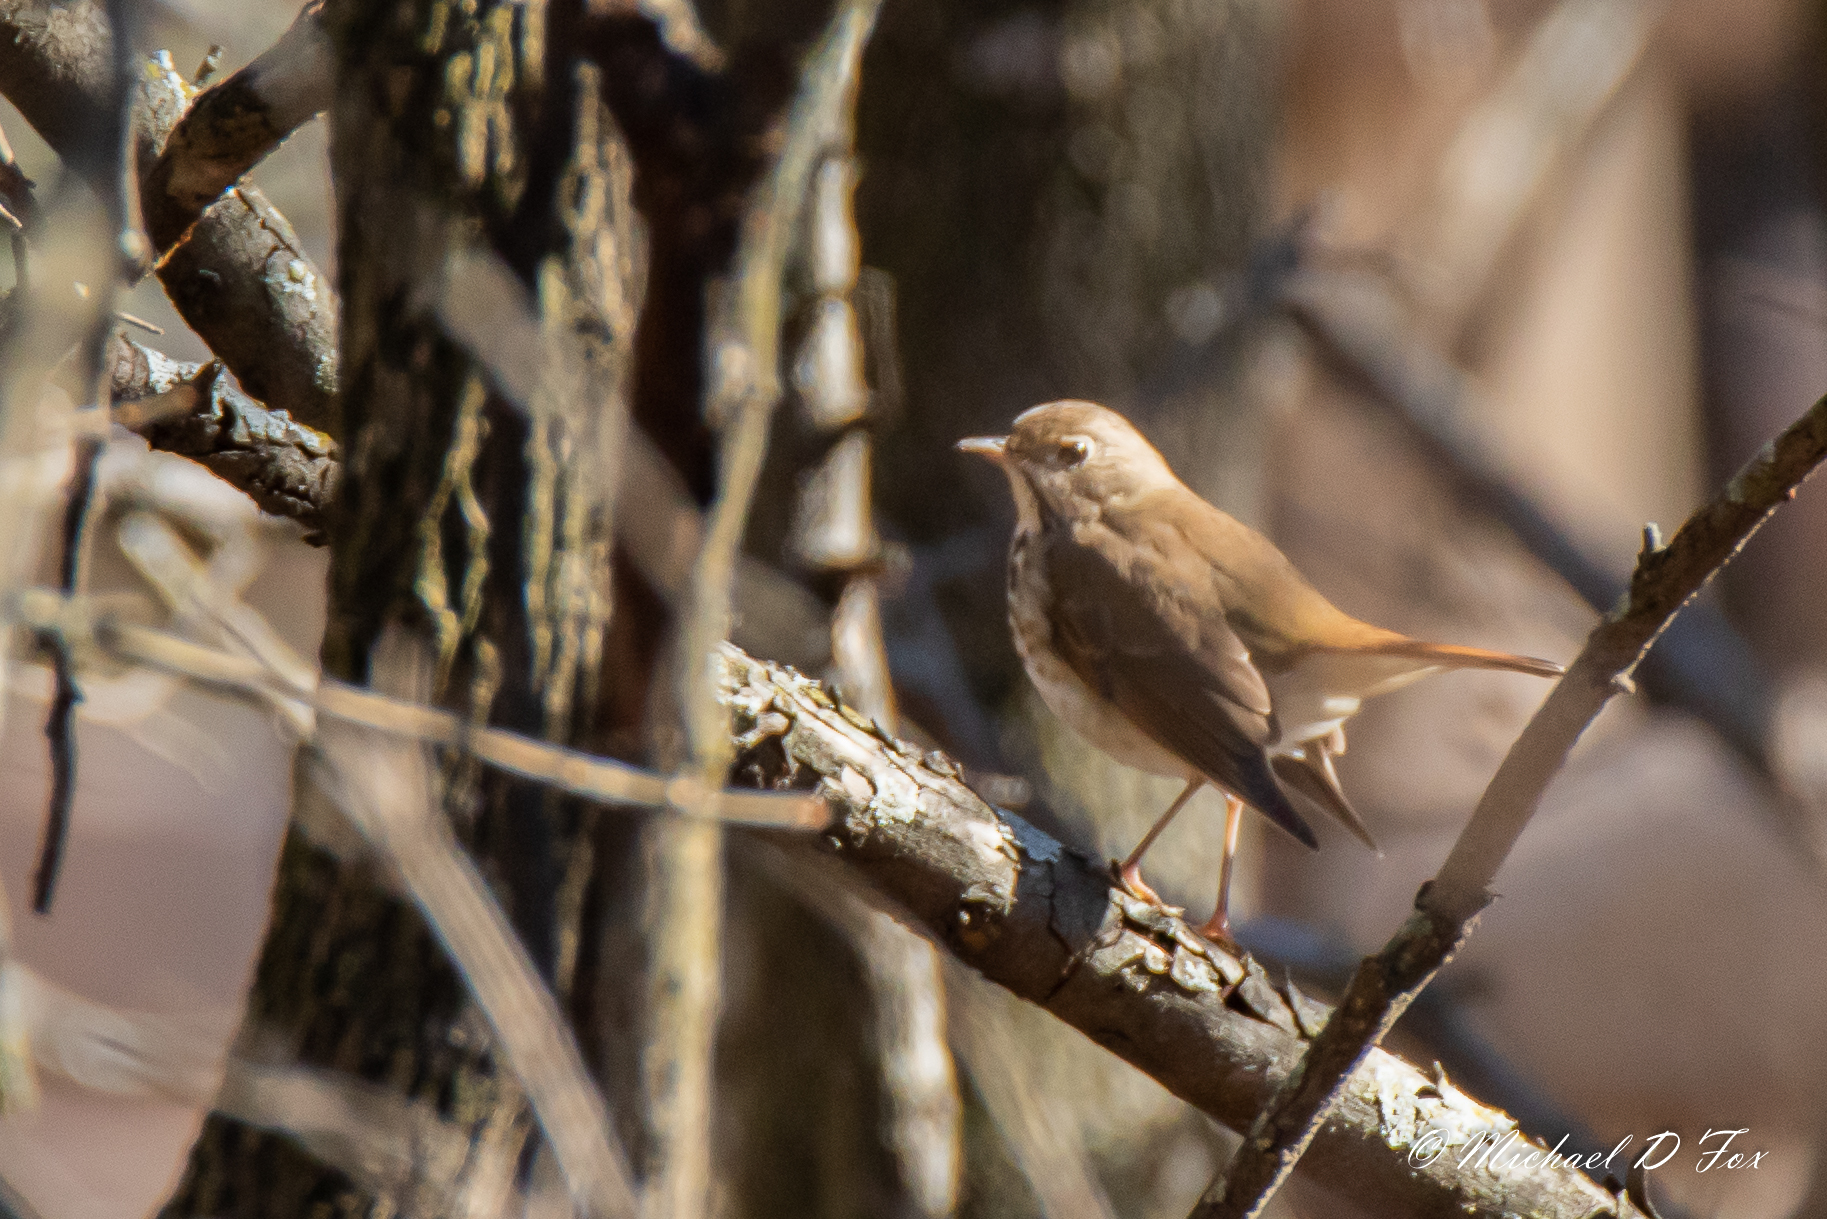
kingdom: Animalia
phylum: Chordata
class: Aves
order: Passeriformes
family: Turdidae
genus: Catharus
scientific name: Catharus guttatus
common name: Hermit thrush
